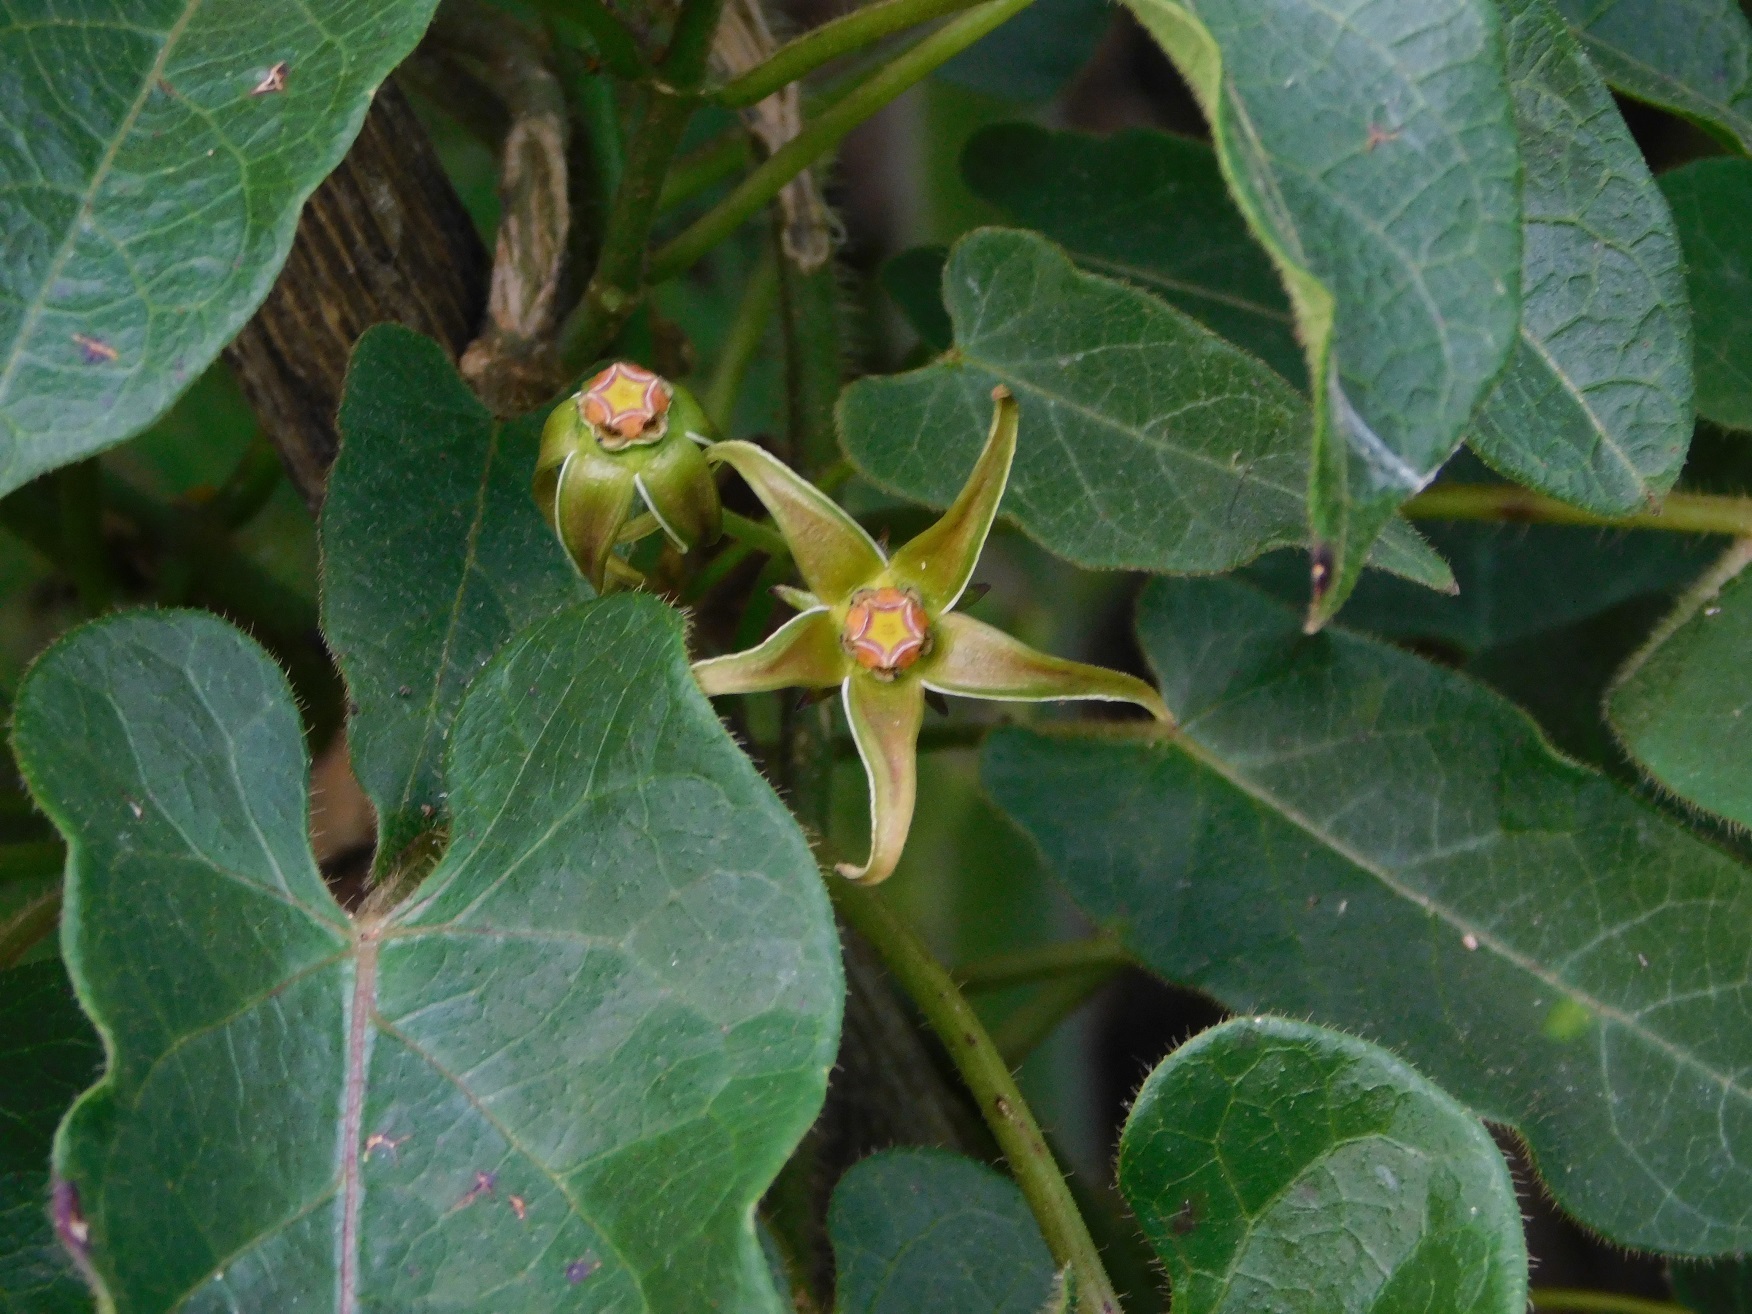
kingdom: Plantae
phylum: Tracheophyta
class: Magnoliopsida
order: Gentianales
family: Apocynaceae
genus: Gonolobus
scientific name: Gonolobus breedlovei
